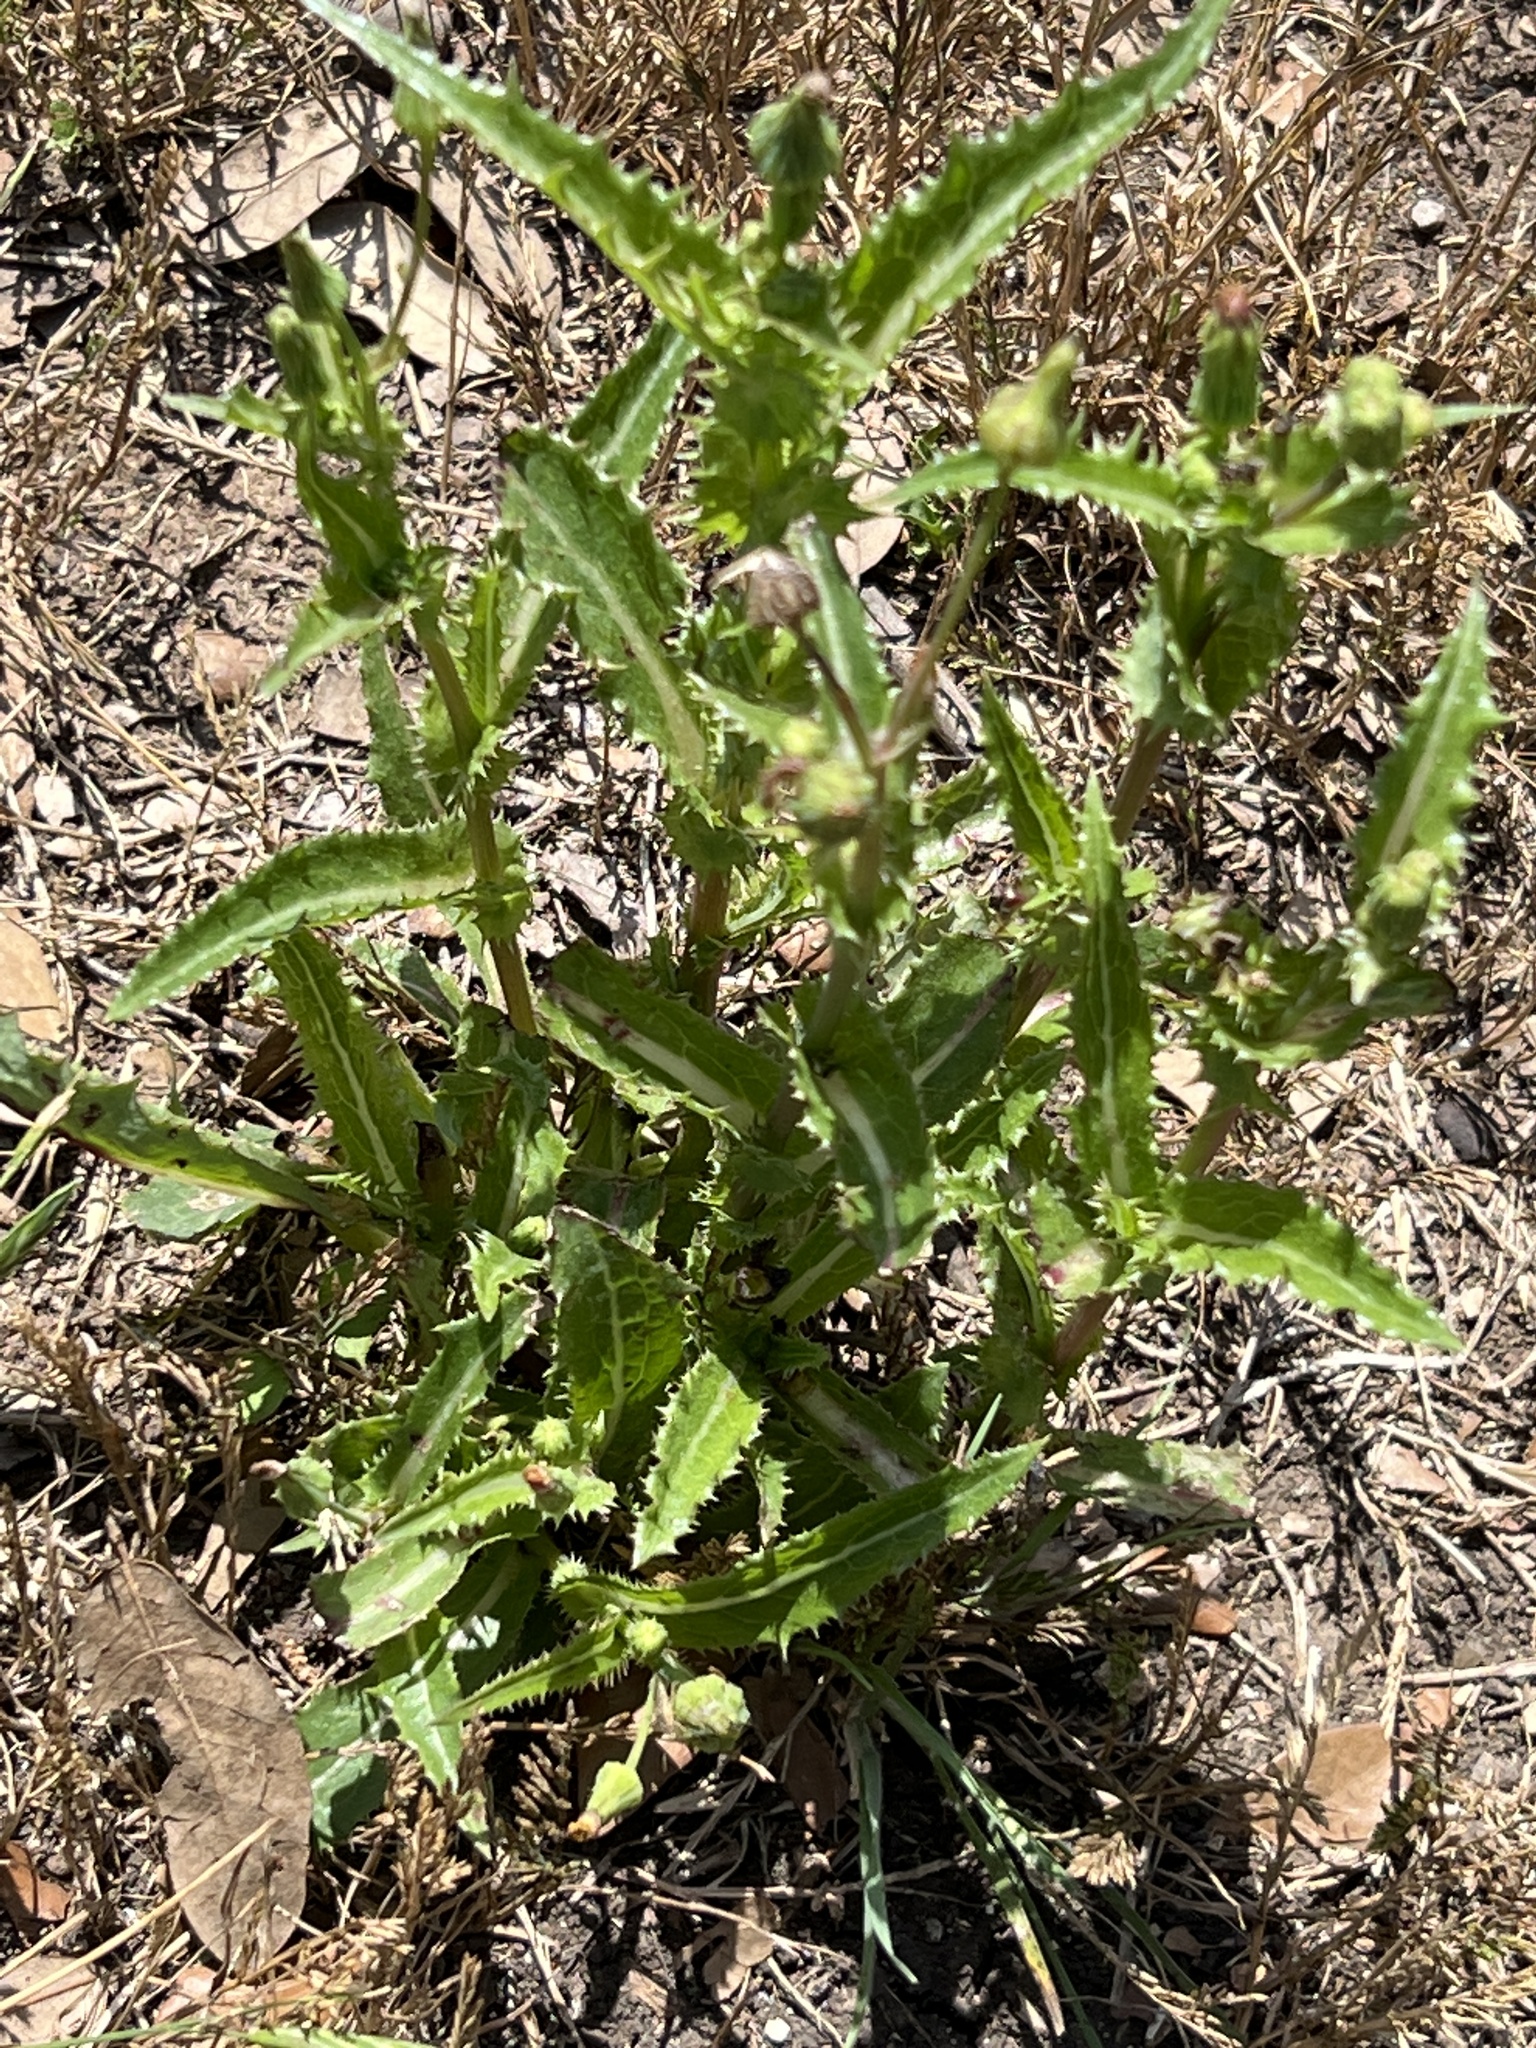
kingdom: Plantae
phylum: Tracheophyta
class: Magnoliopsida
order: Asterales
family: Asteraceae
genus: Sonchus
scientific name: Sonchus asper
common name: Prickly sow-thistle
